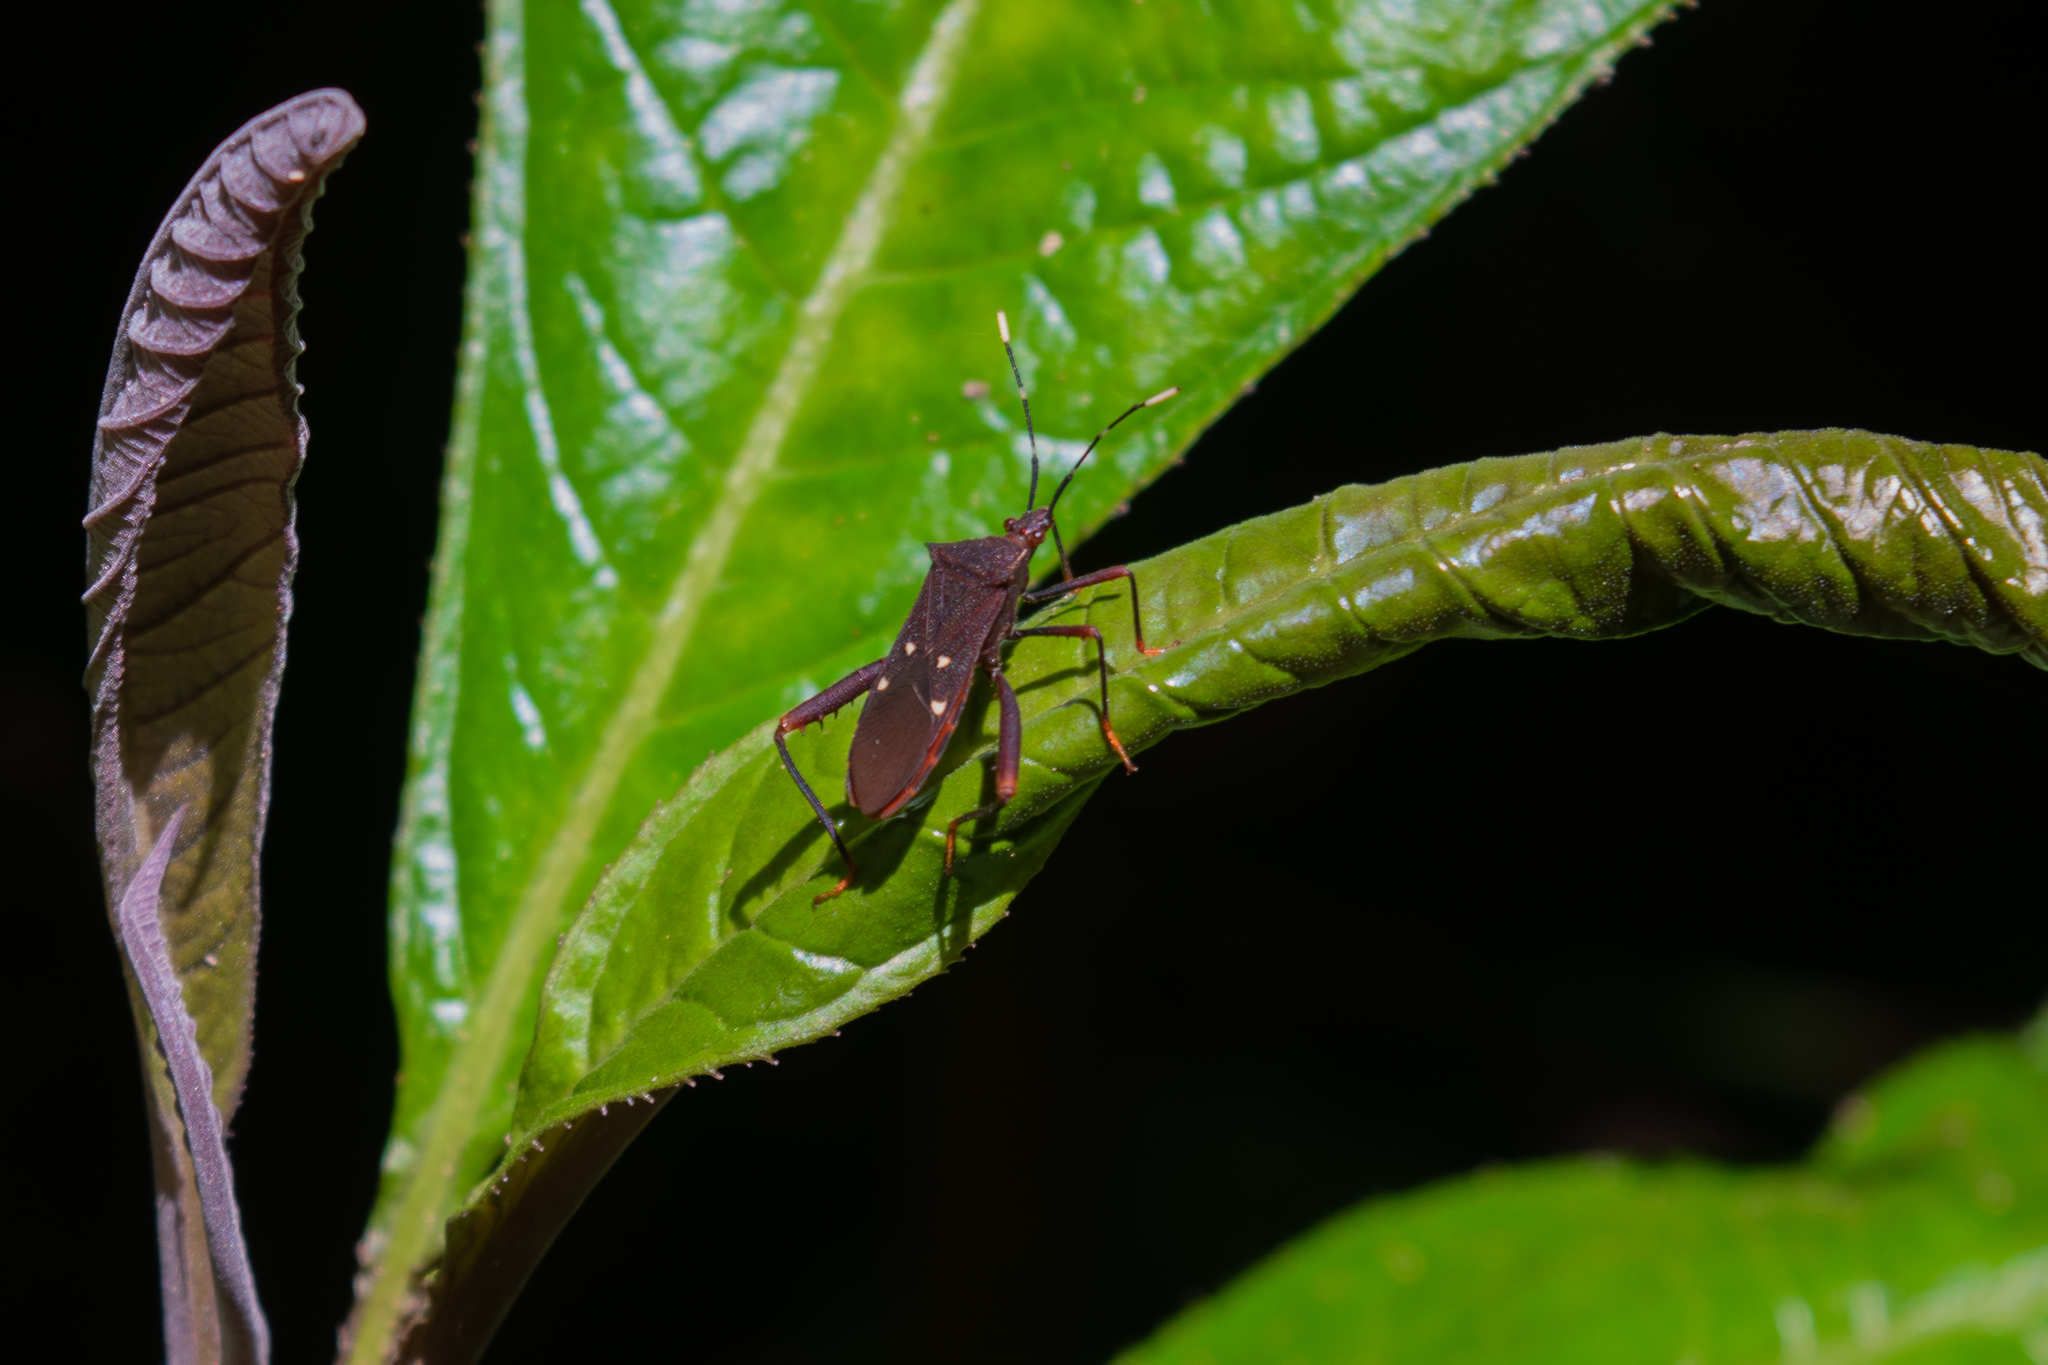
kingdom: Animalia
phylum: Arthropoda
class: Insecta
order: Hemiptera
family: Coreidae
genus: Leptoscelis
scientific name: Leptoscelis quadrisignatus
